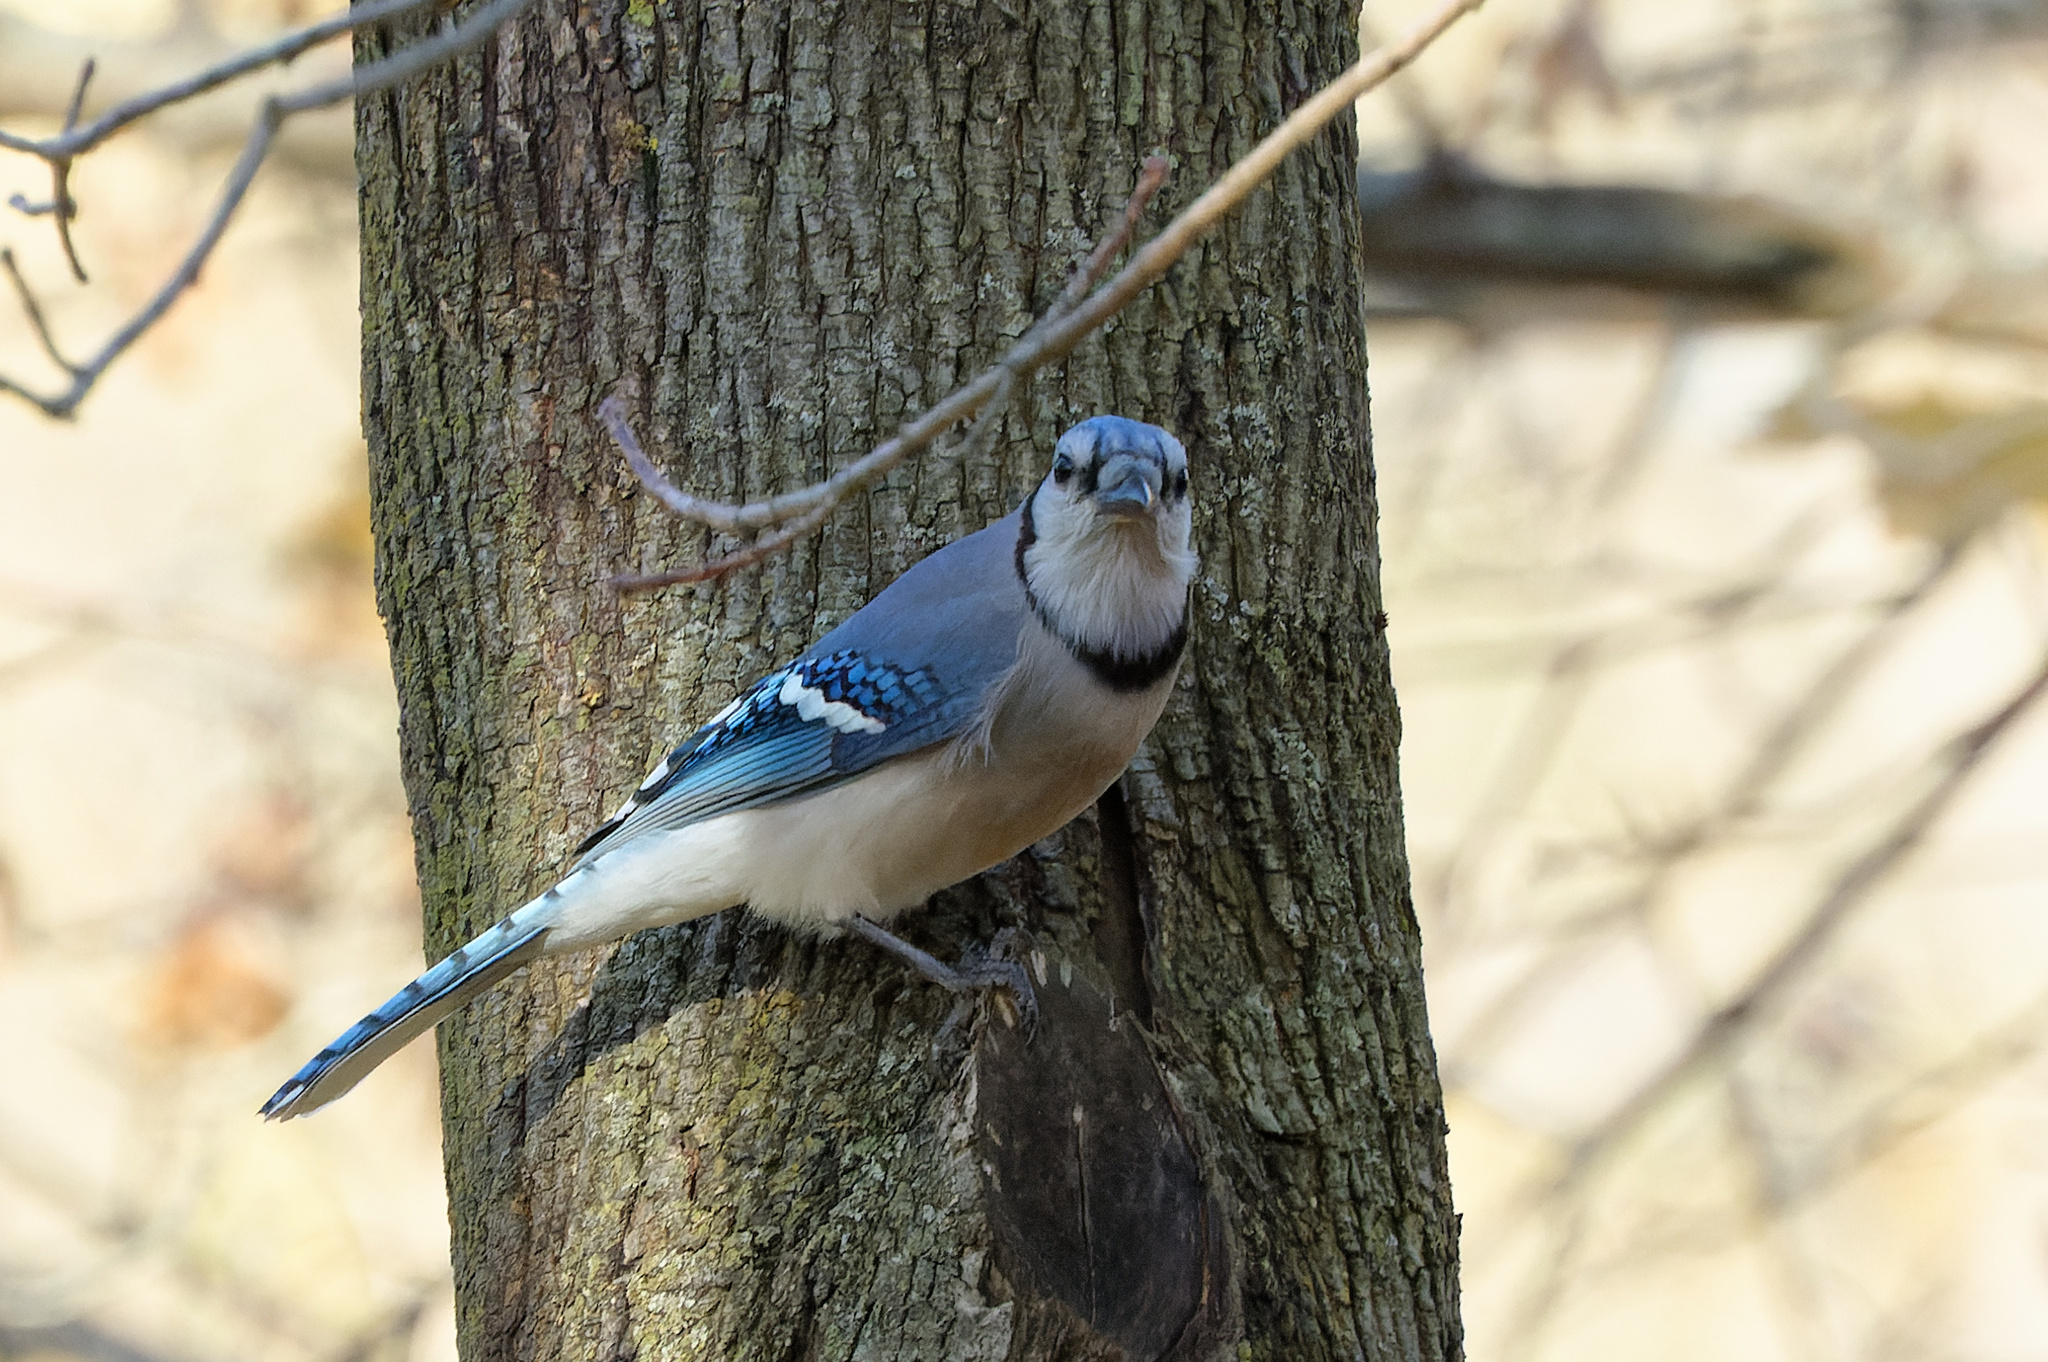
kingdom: Animalia
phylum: Chordata
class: Aves
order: Passeriformes
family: Corvidae
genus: Cyanocitta
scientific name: Cyanocitta cristata
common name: Blue jay
